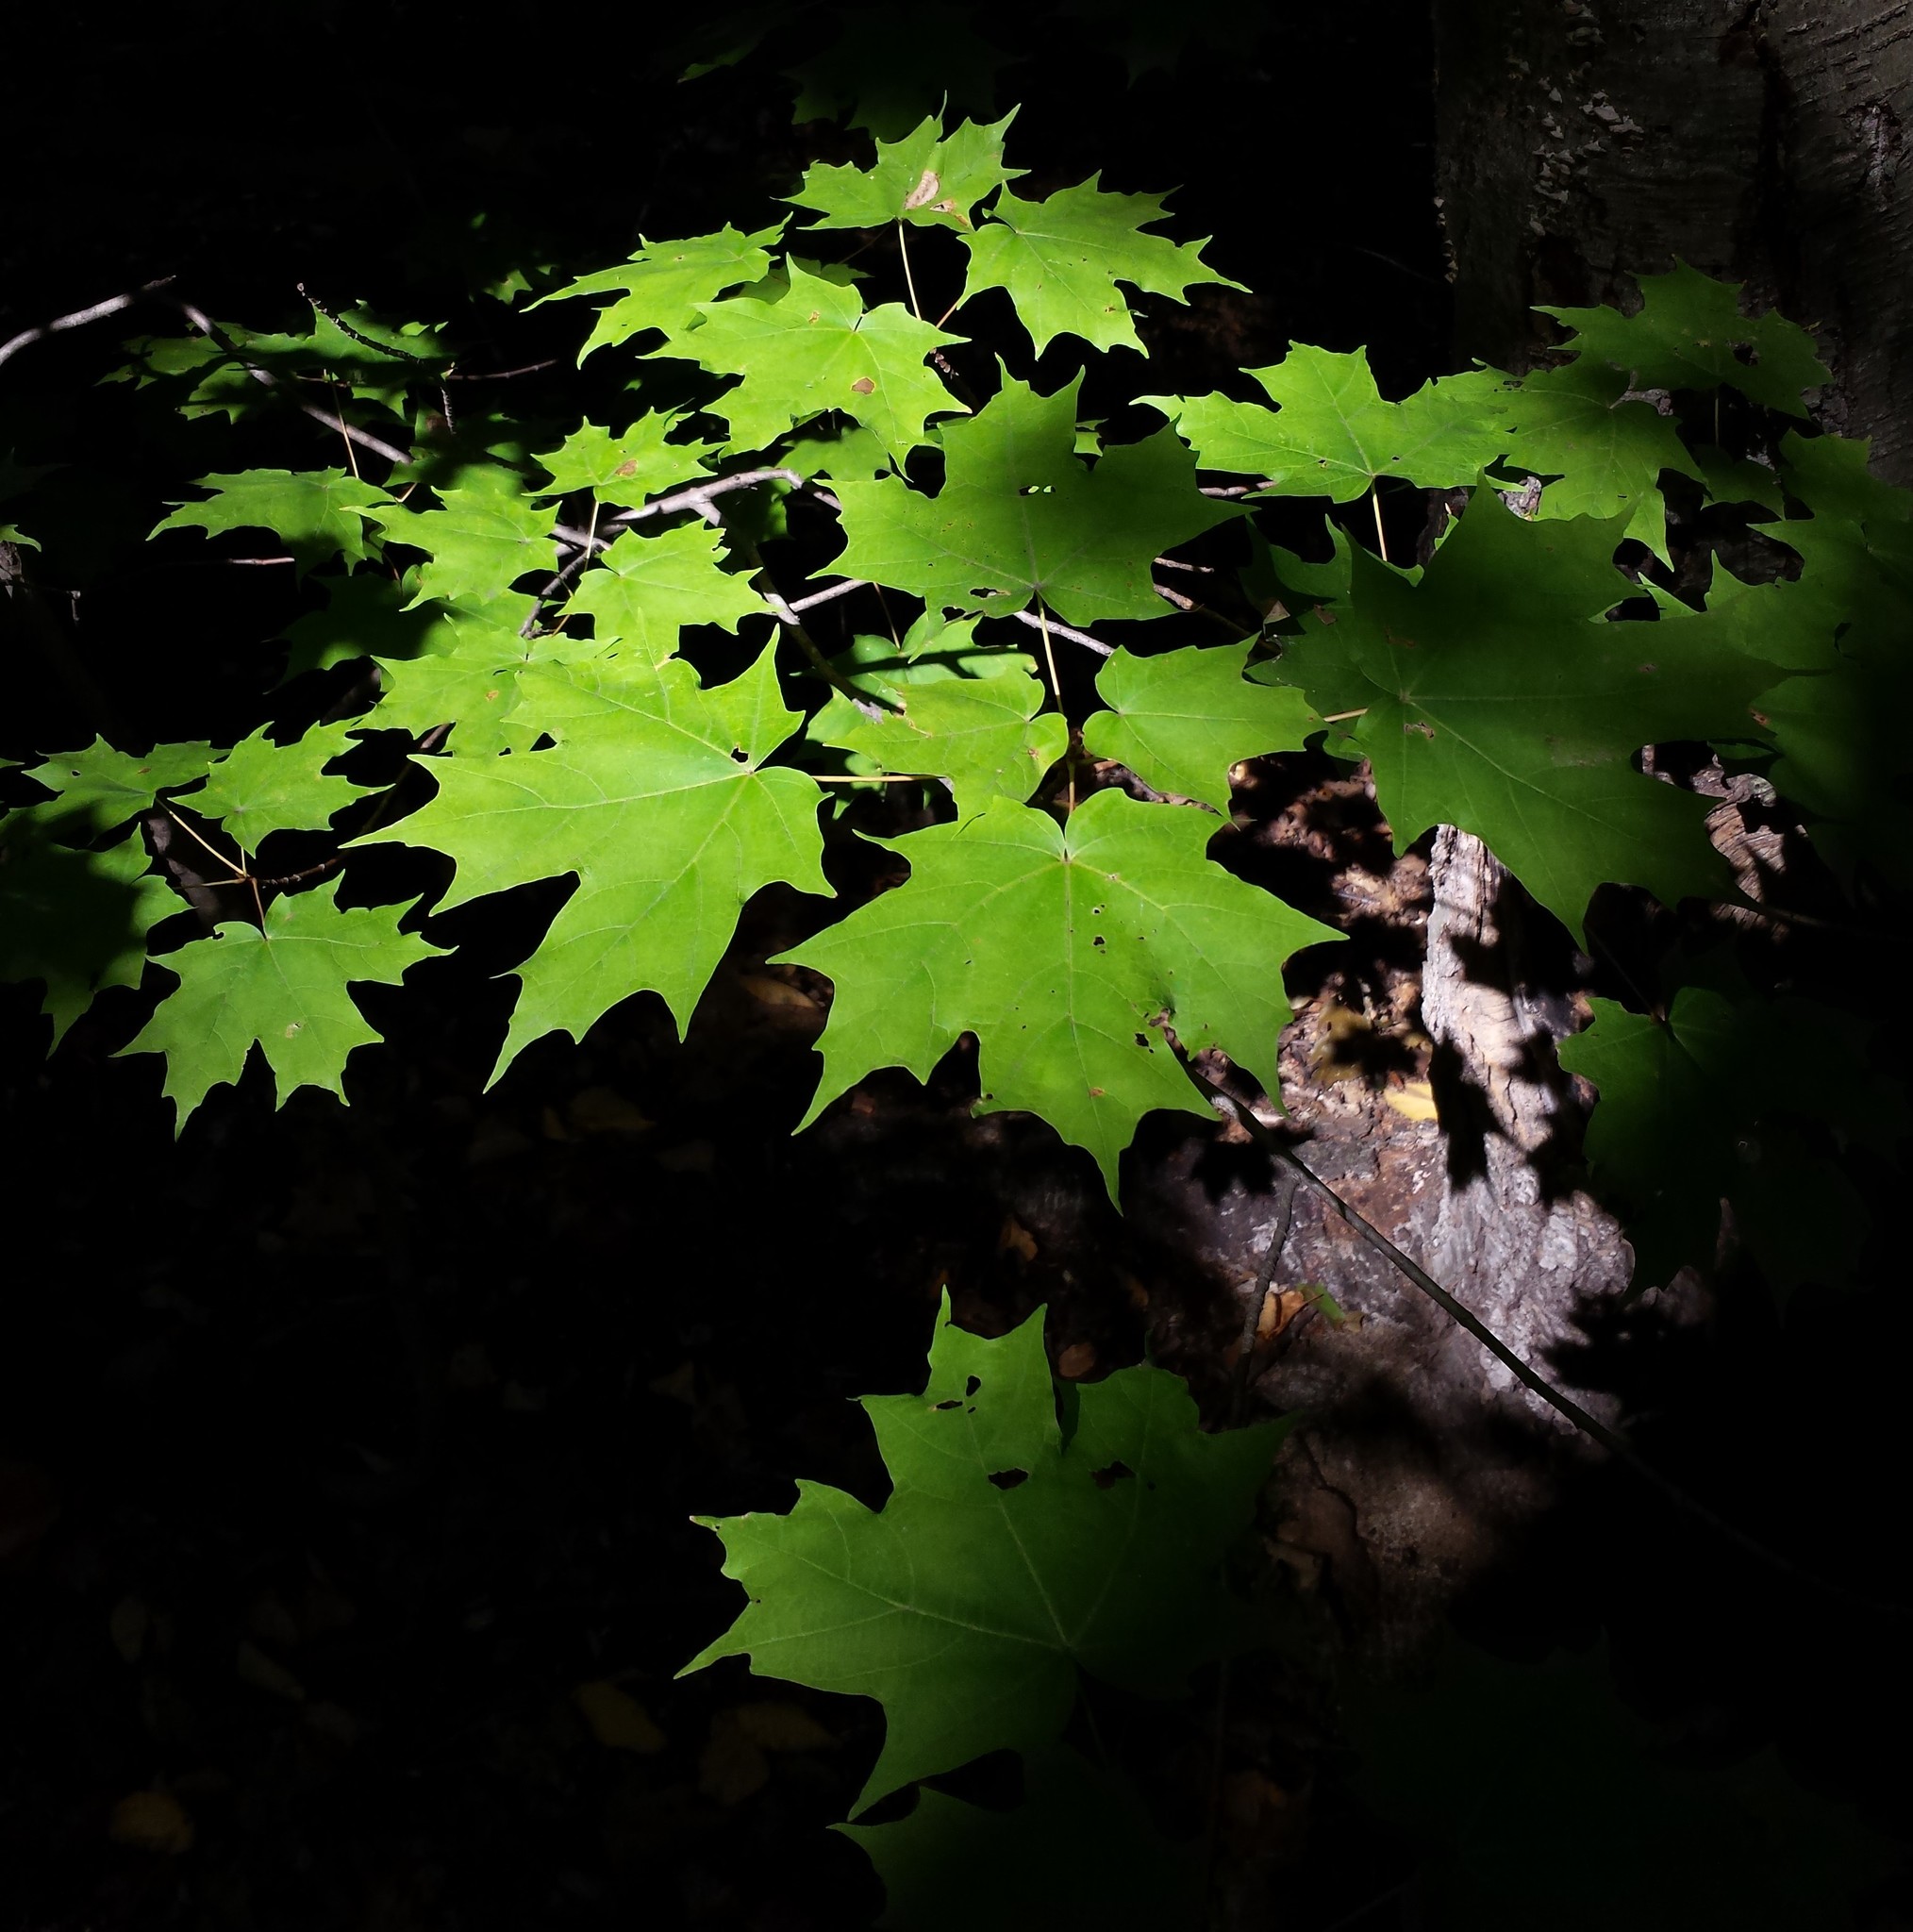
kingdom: Plantae
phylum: Tracheophyta
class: Magnoliopsida
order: Sapindales
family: Sapindaceae
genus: Acer
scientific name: Acer saccharum
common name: Sugar maple
